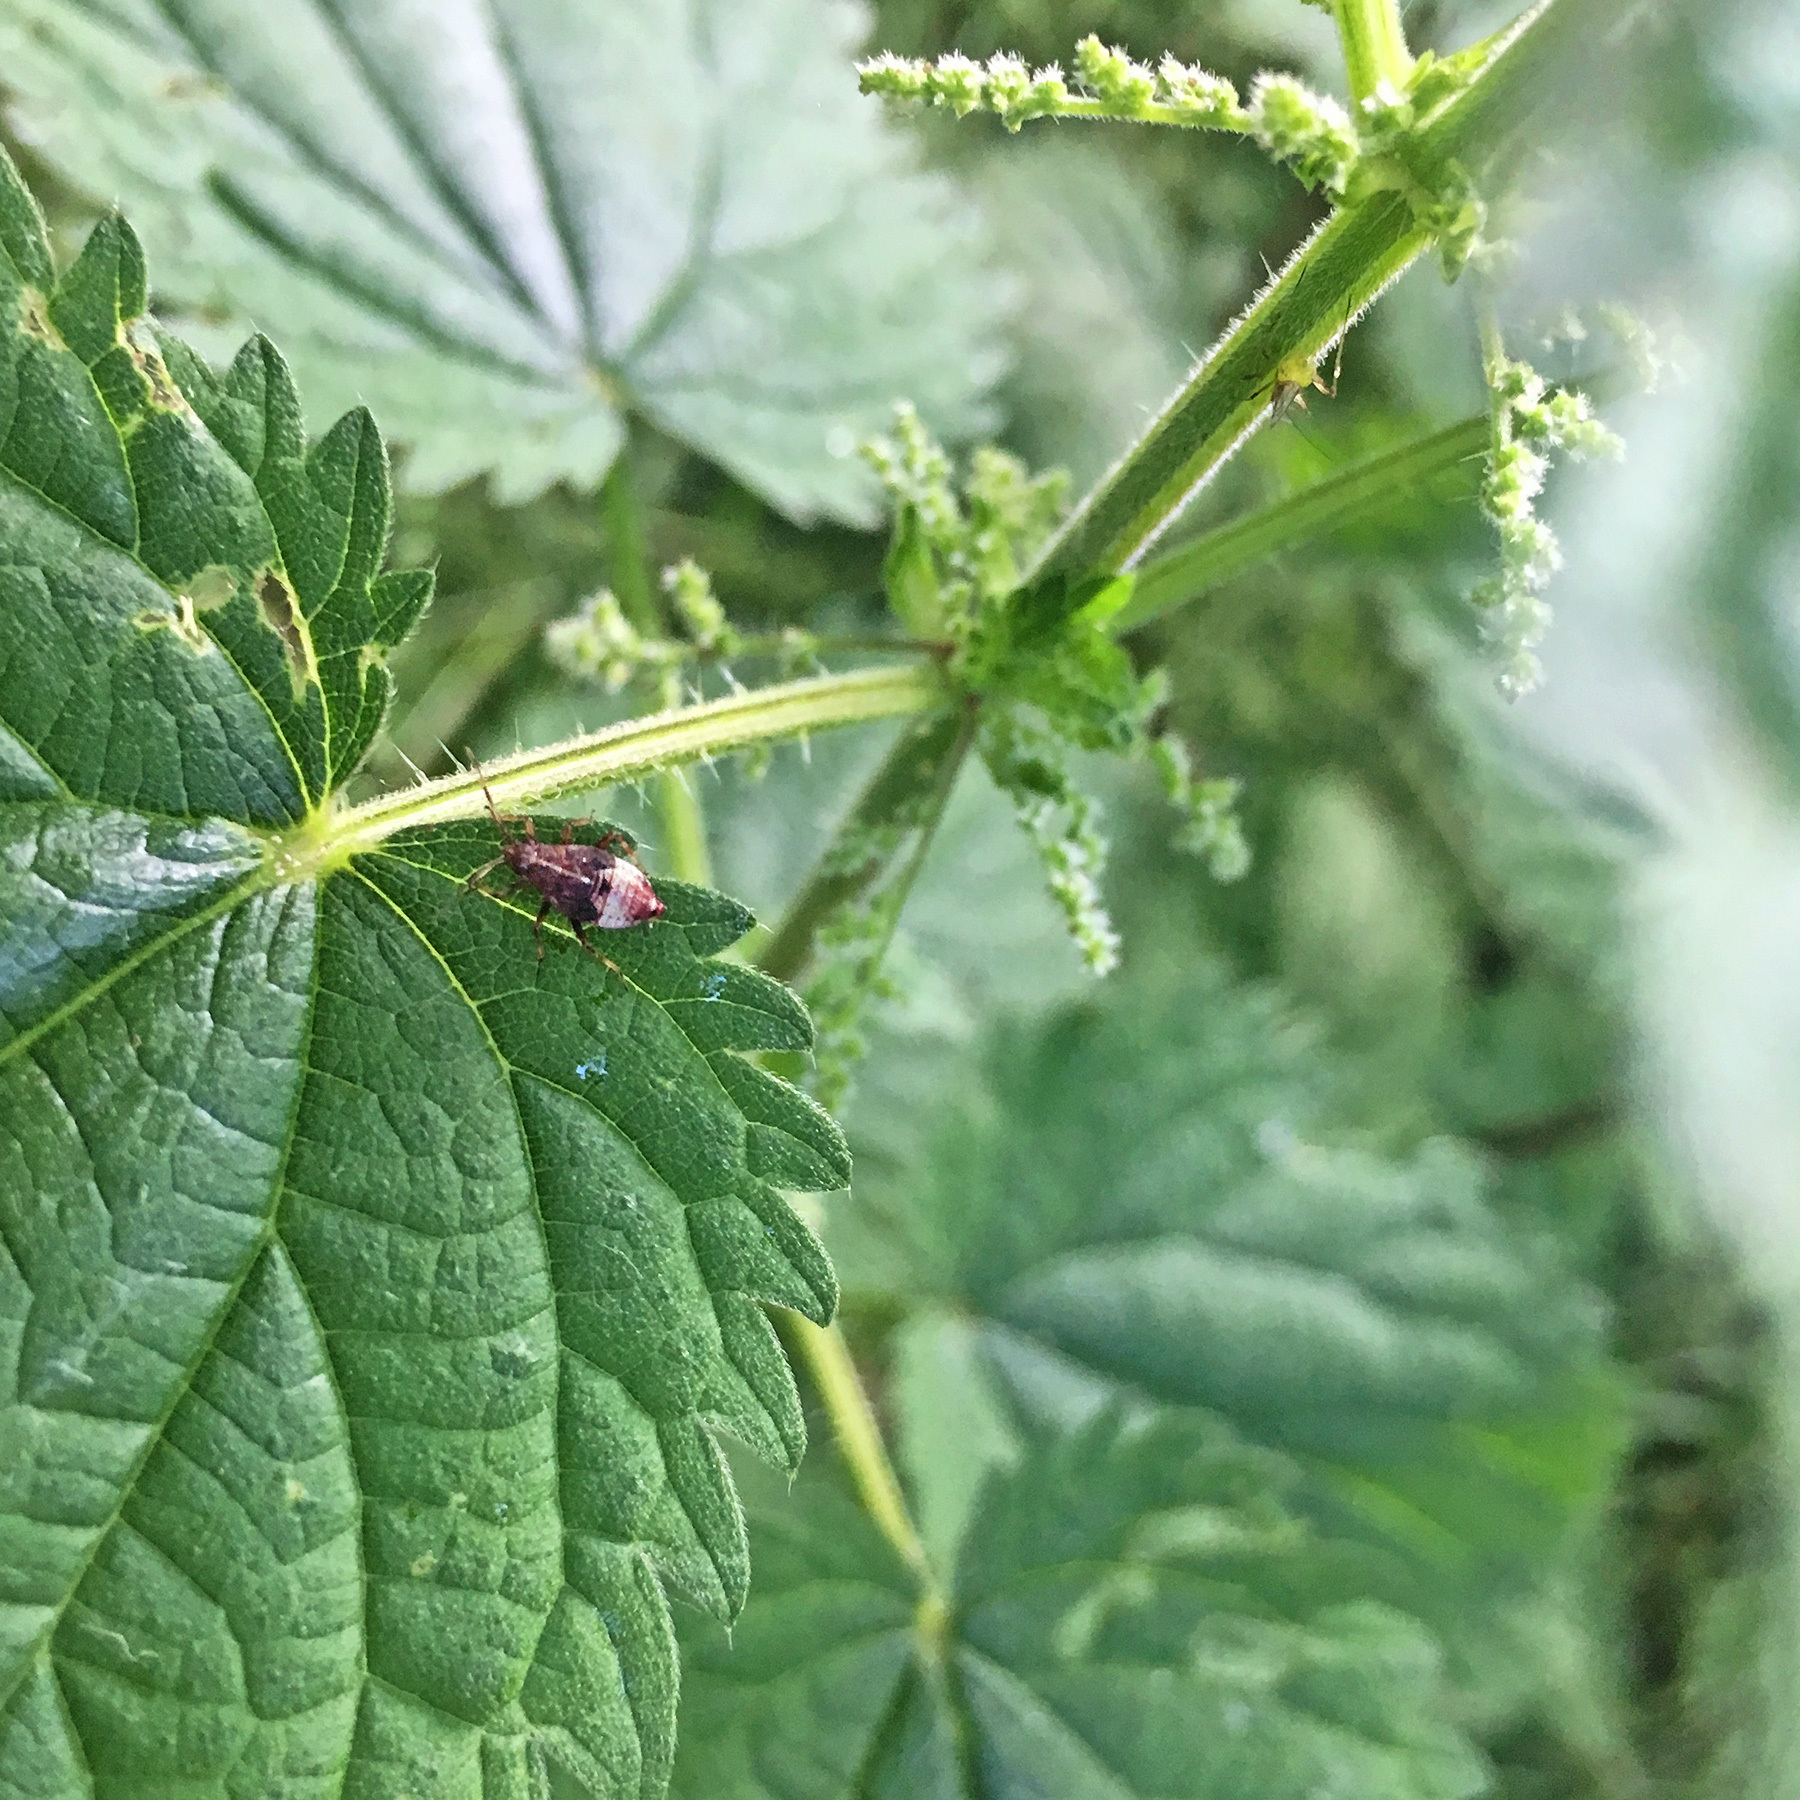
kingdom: Animalia
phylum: Arthropoda
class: Insecta
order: Hemiptera
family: Miridae
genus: Deraeocoris
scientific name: Deraeocoris flavilinea
